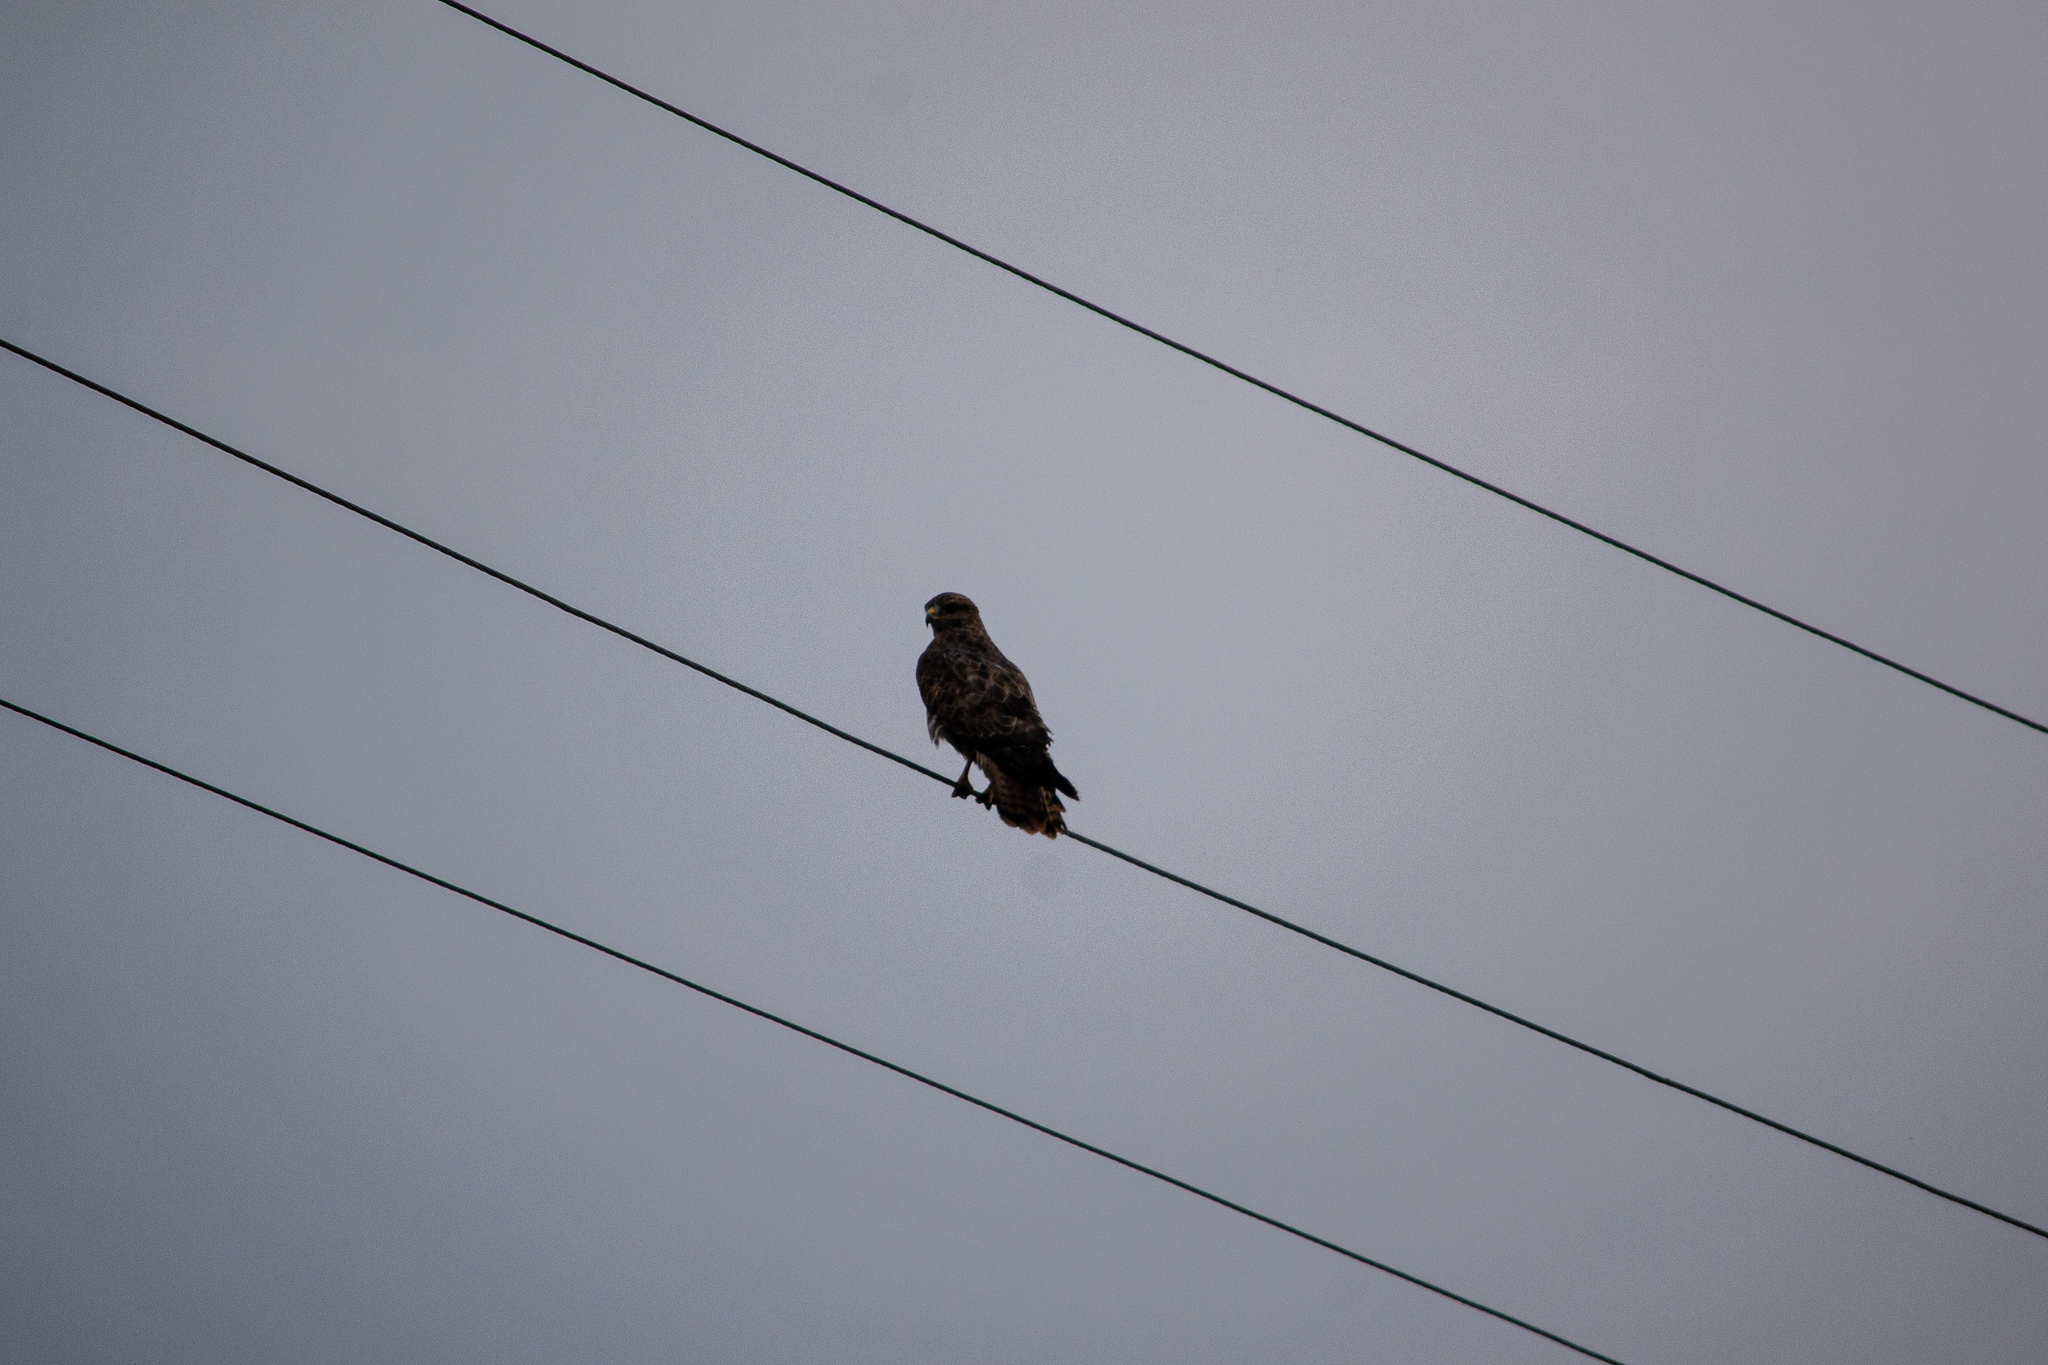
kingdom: Animalia
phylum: Chordata
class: Aves
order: Accipitriformes
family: Accipitridae
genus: Buteo
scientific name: Buteo buteo
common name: Common buzzard
